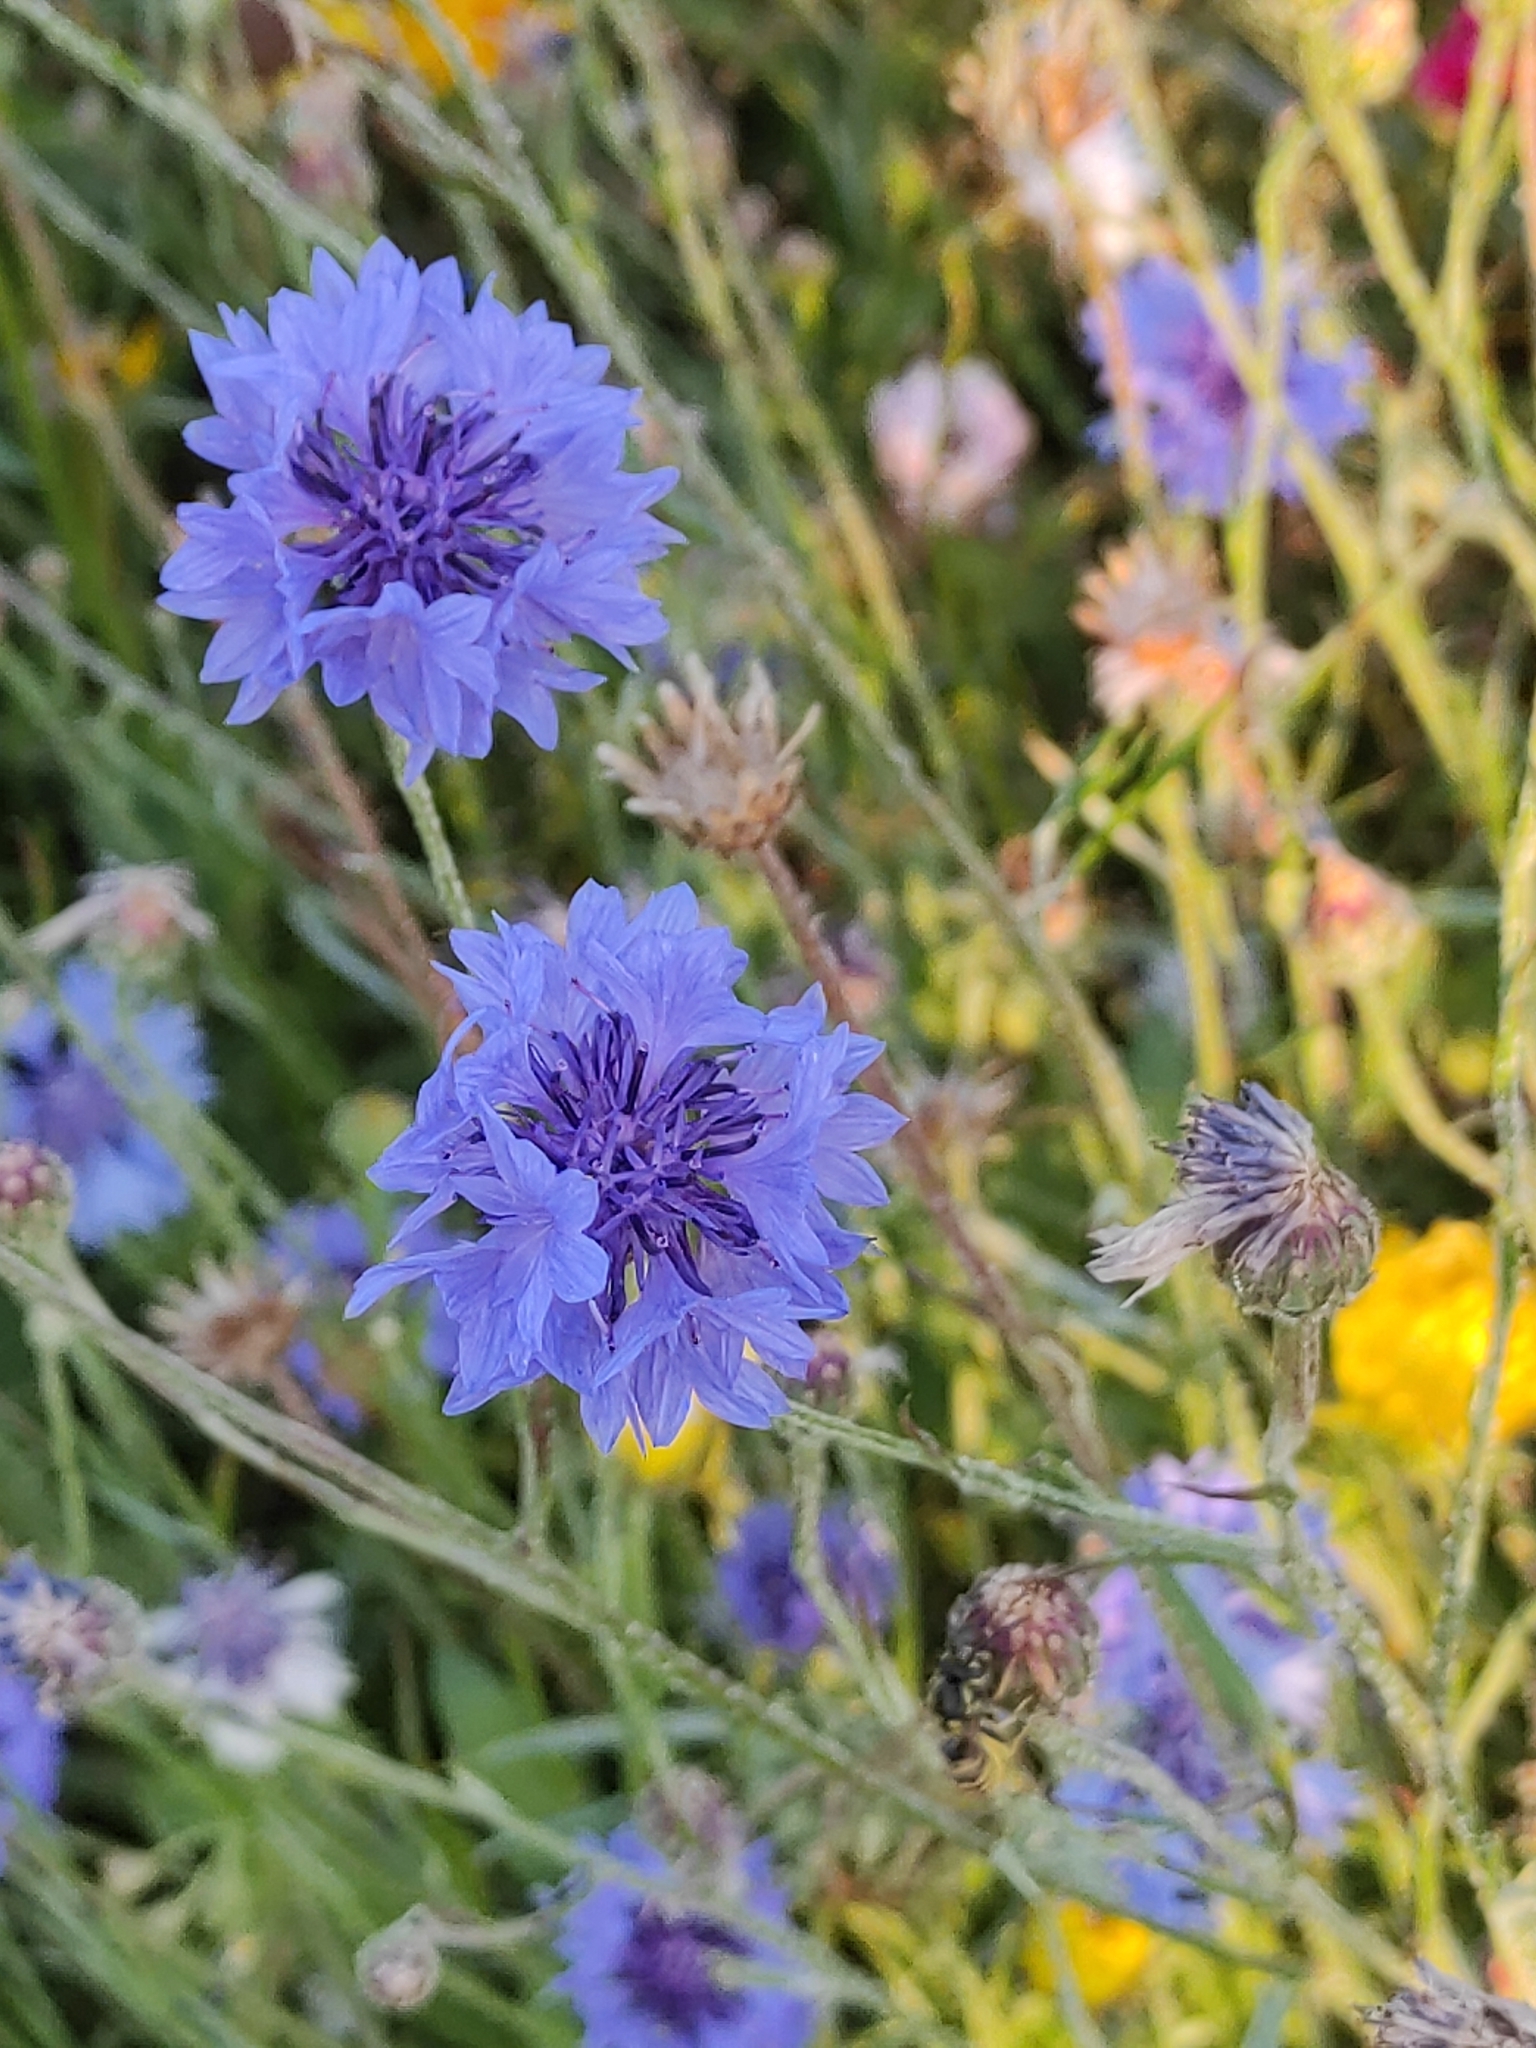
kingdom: Plantae
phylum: Tracheophyta
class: Magnoliopsida
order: Asterales
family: Asteraceae
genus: Centaurea
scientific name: Centaurea cyanus
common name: Cornflower
